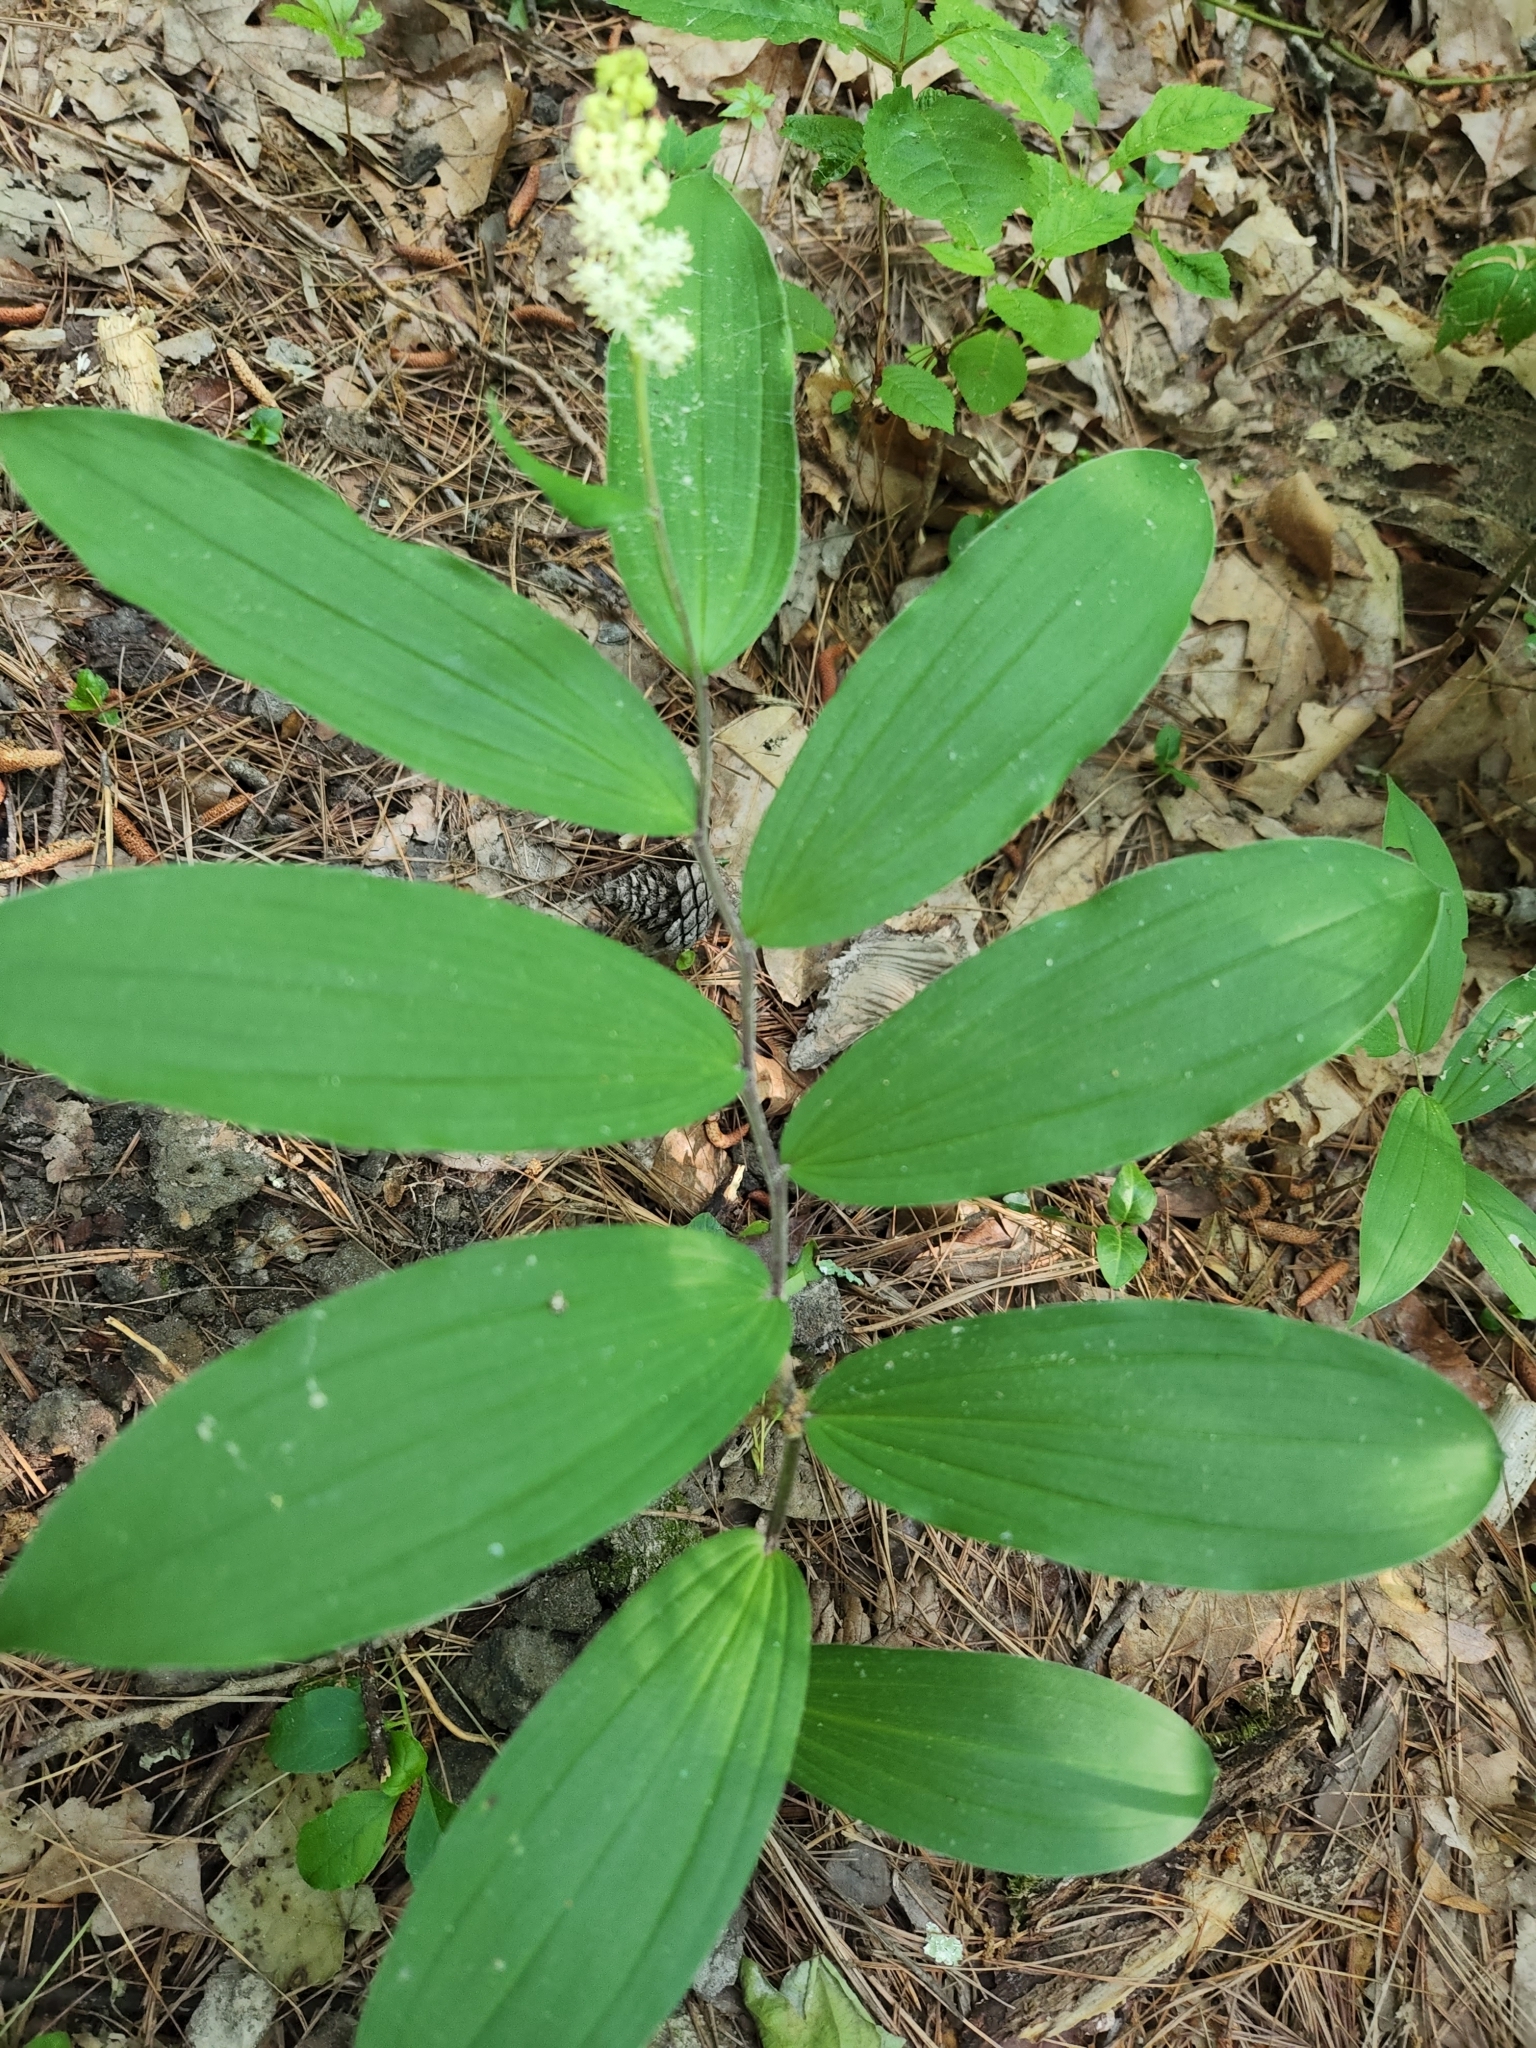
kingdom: Plantae
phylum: Tracheophyta
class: Liliopsida
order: Asparagales
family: Asparagaceae
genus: Maianthemum
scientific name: Maianthemum racemosum
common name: False spikenard
